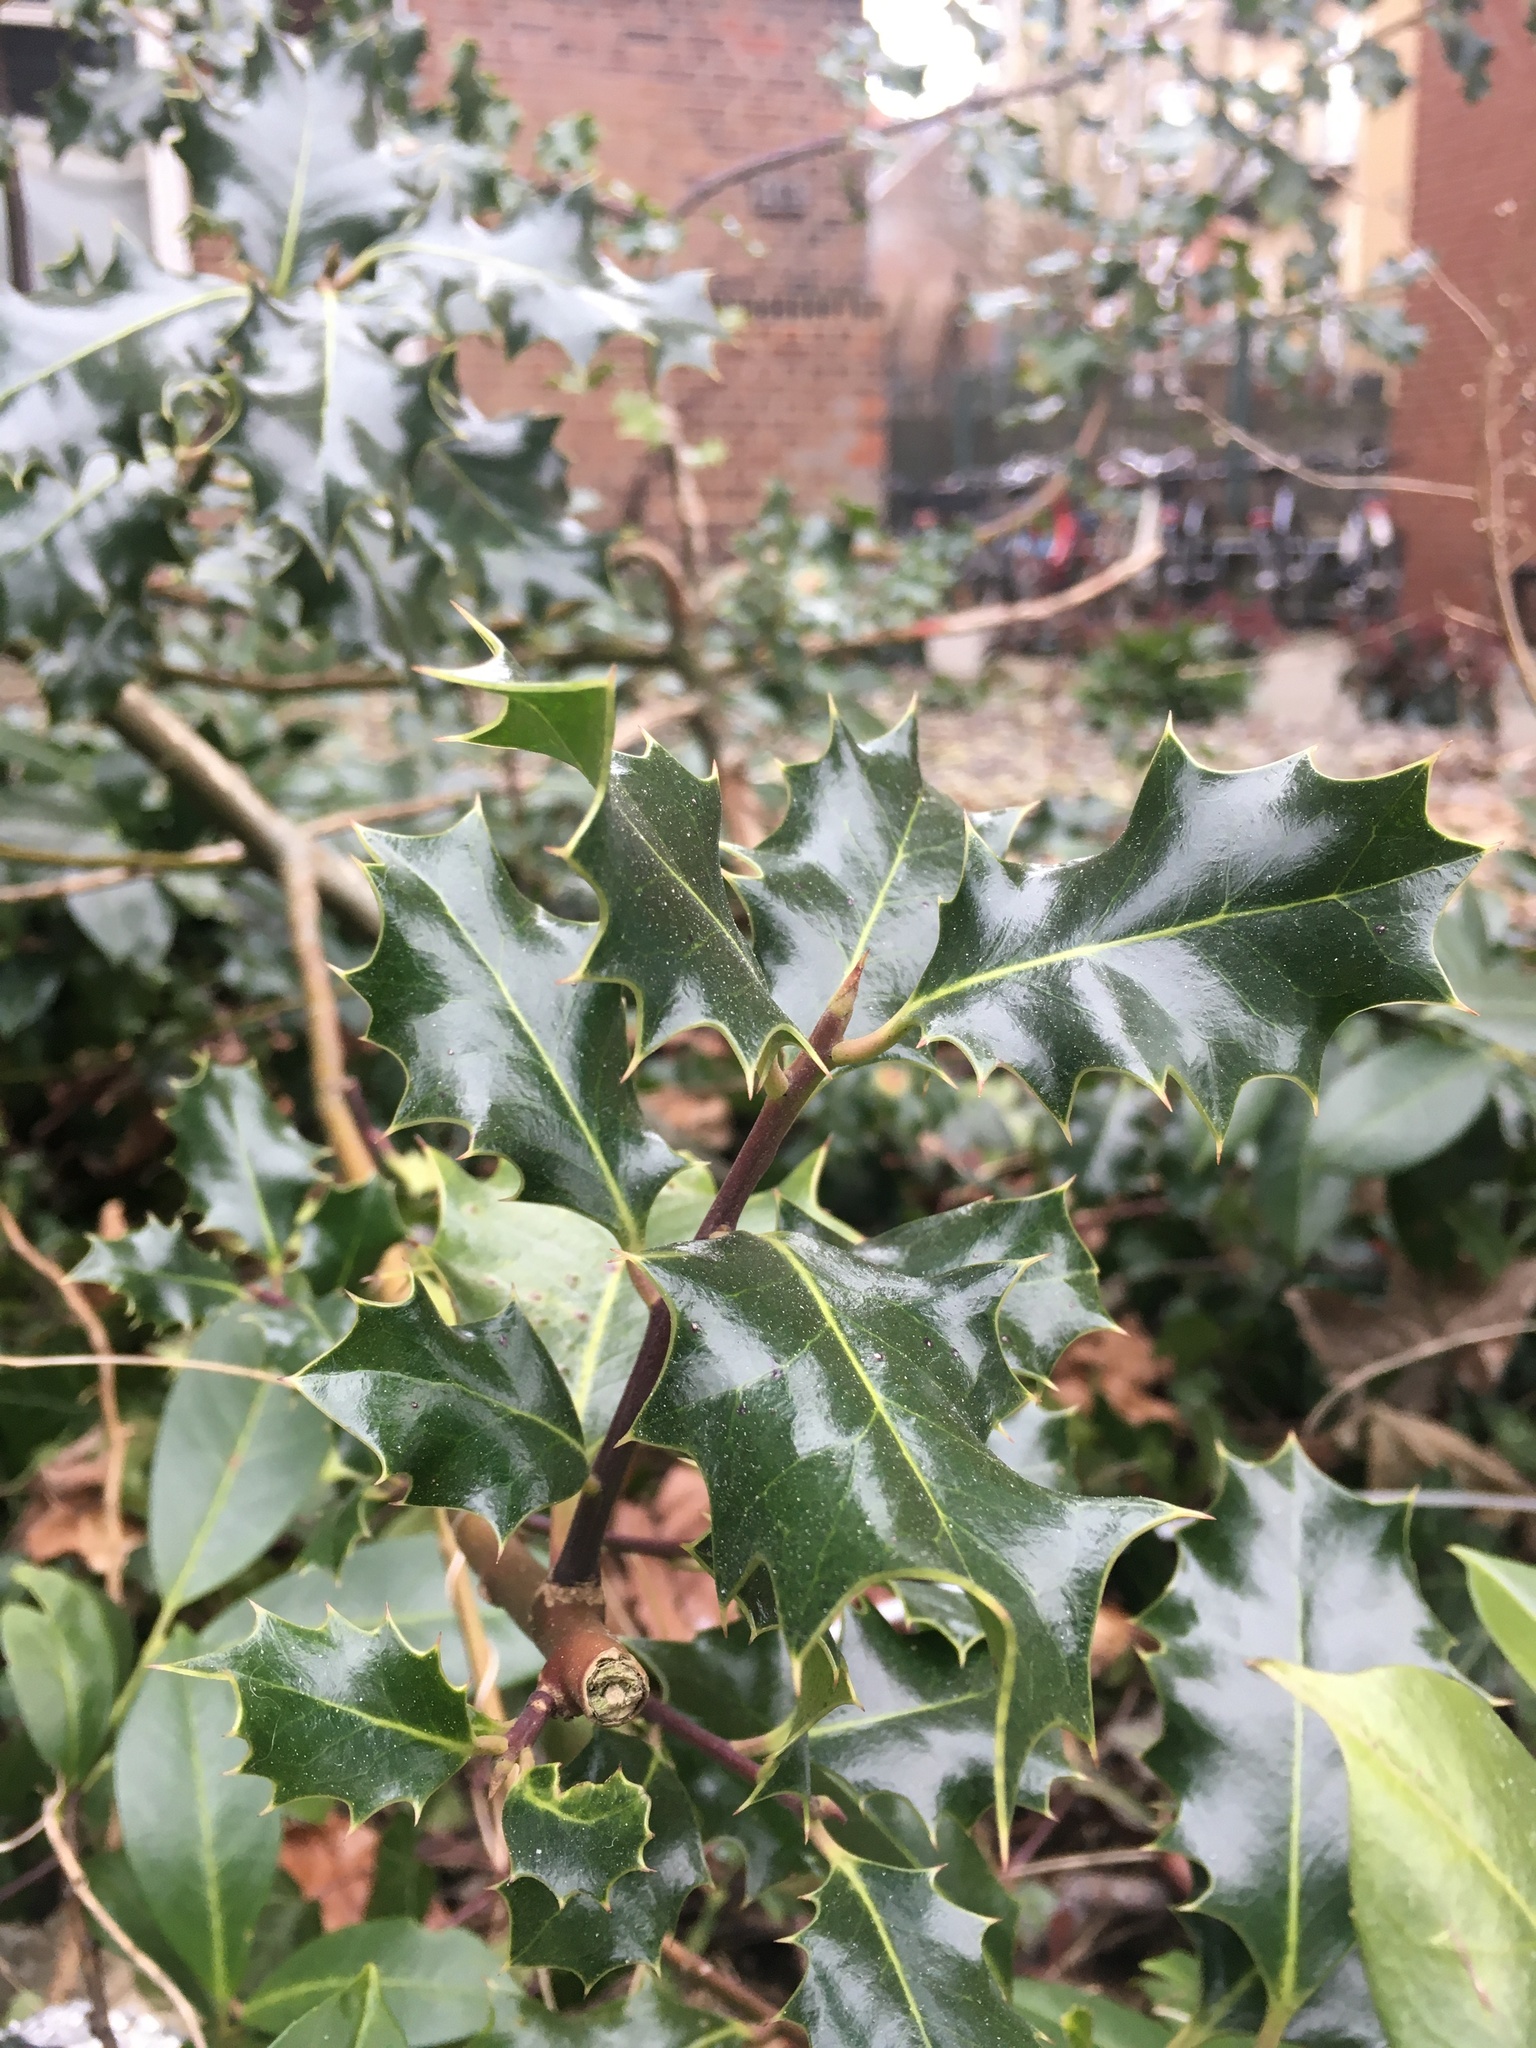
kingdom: Plantae
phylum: Tracheophyta
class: Magnoliopsida
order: Aquifoliales
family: Aquifoliaceae
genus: Ilex
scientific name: Ilex aquifolium
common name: English holly
